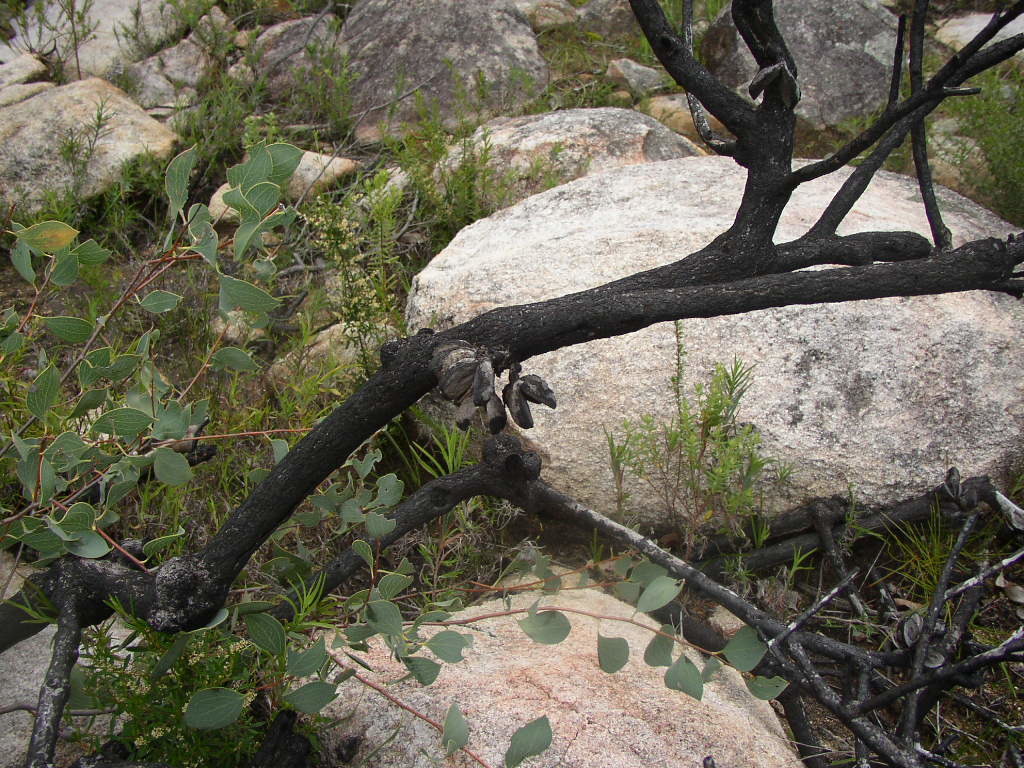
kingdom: Plantae
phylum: Tracheophyta
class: Magnoliopsida
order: Proteales
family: Proteaceae
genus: Hakea
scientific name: Hakea trifurcata
